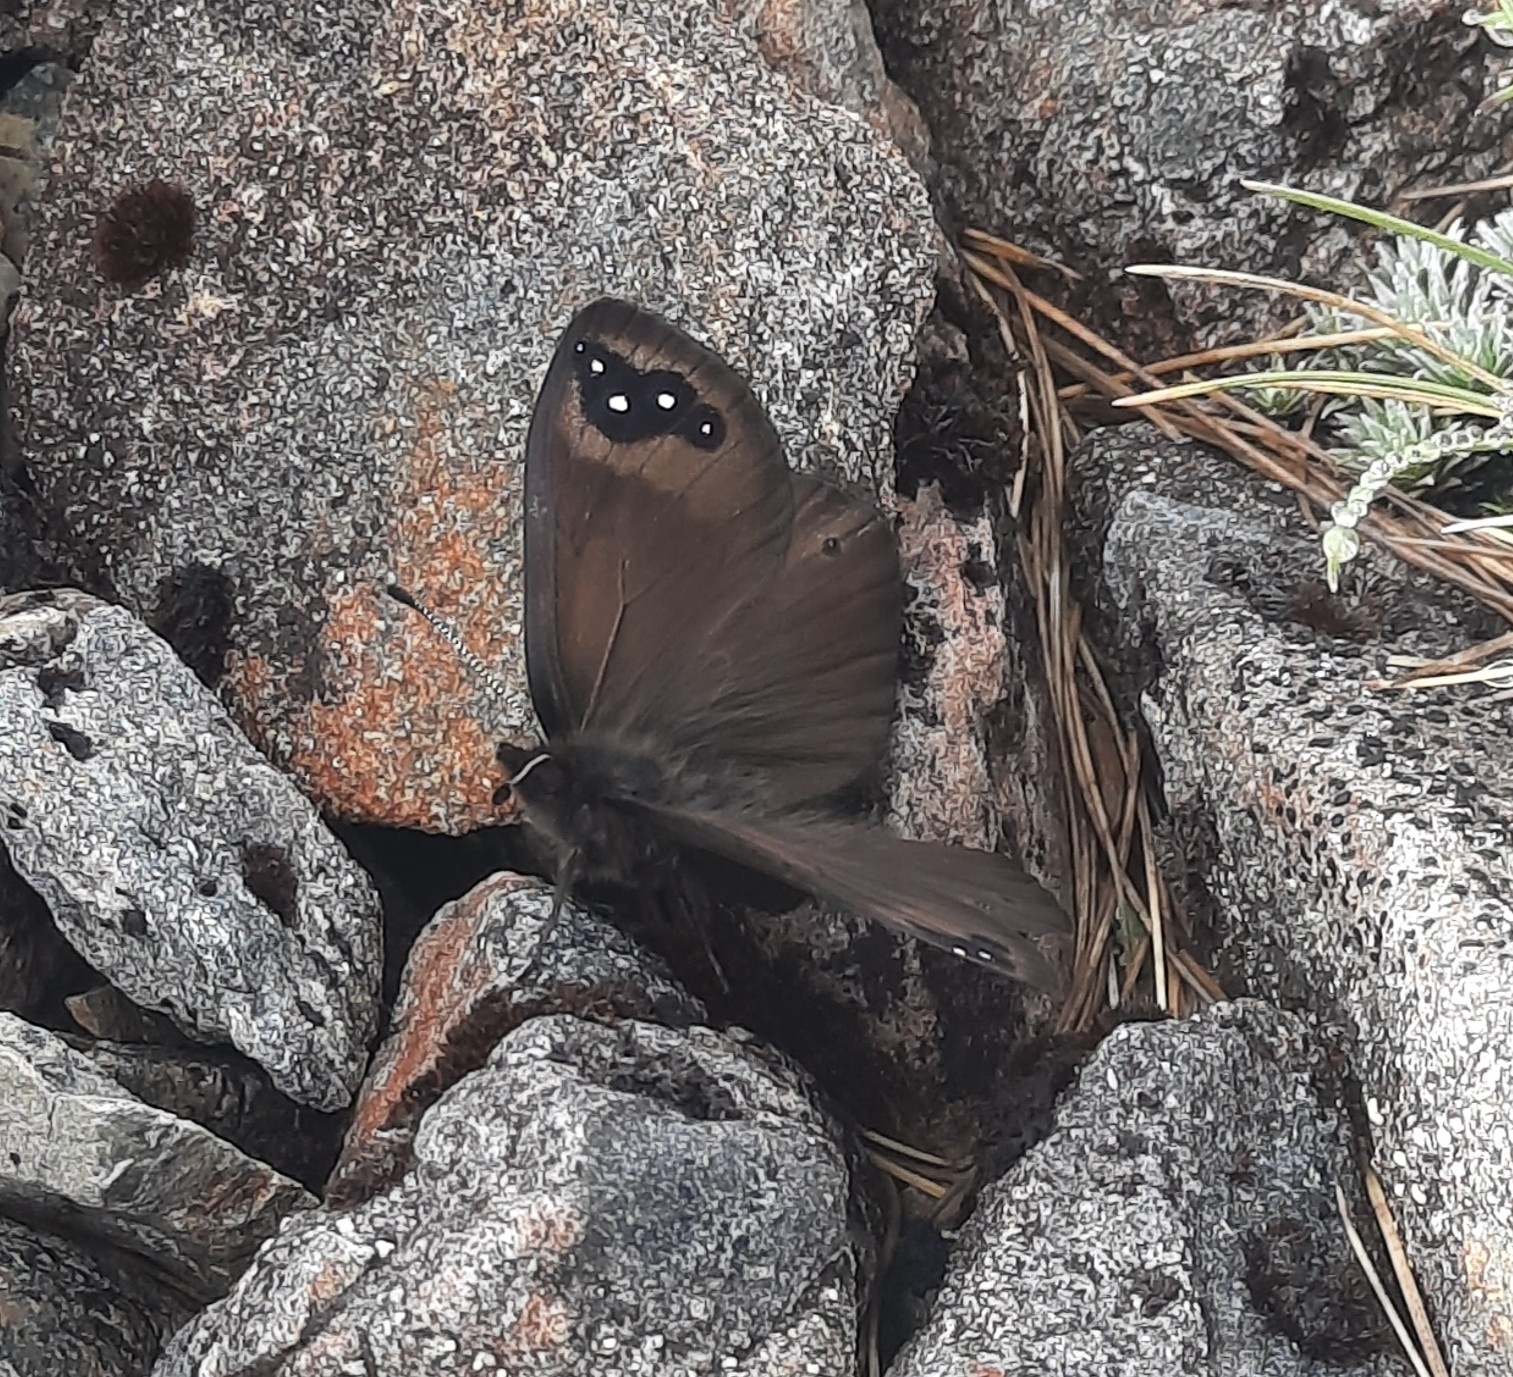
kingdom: Animalia
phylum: Arthropoda
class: Insecta
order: Lepidoptera
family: Nymphalidae
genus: Erebia
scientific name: Erebia Percnodaimon merula
